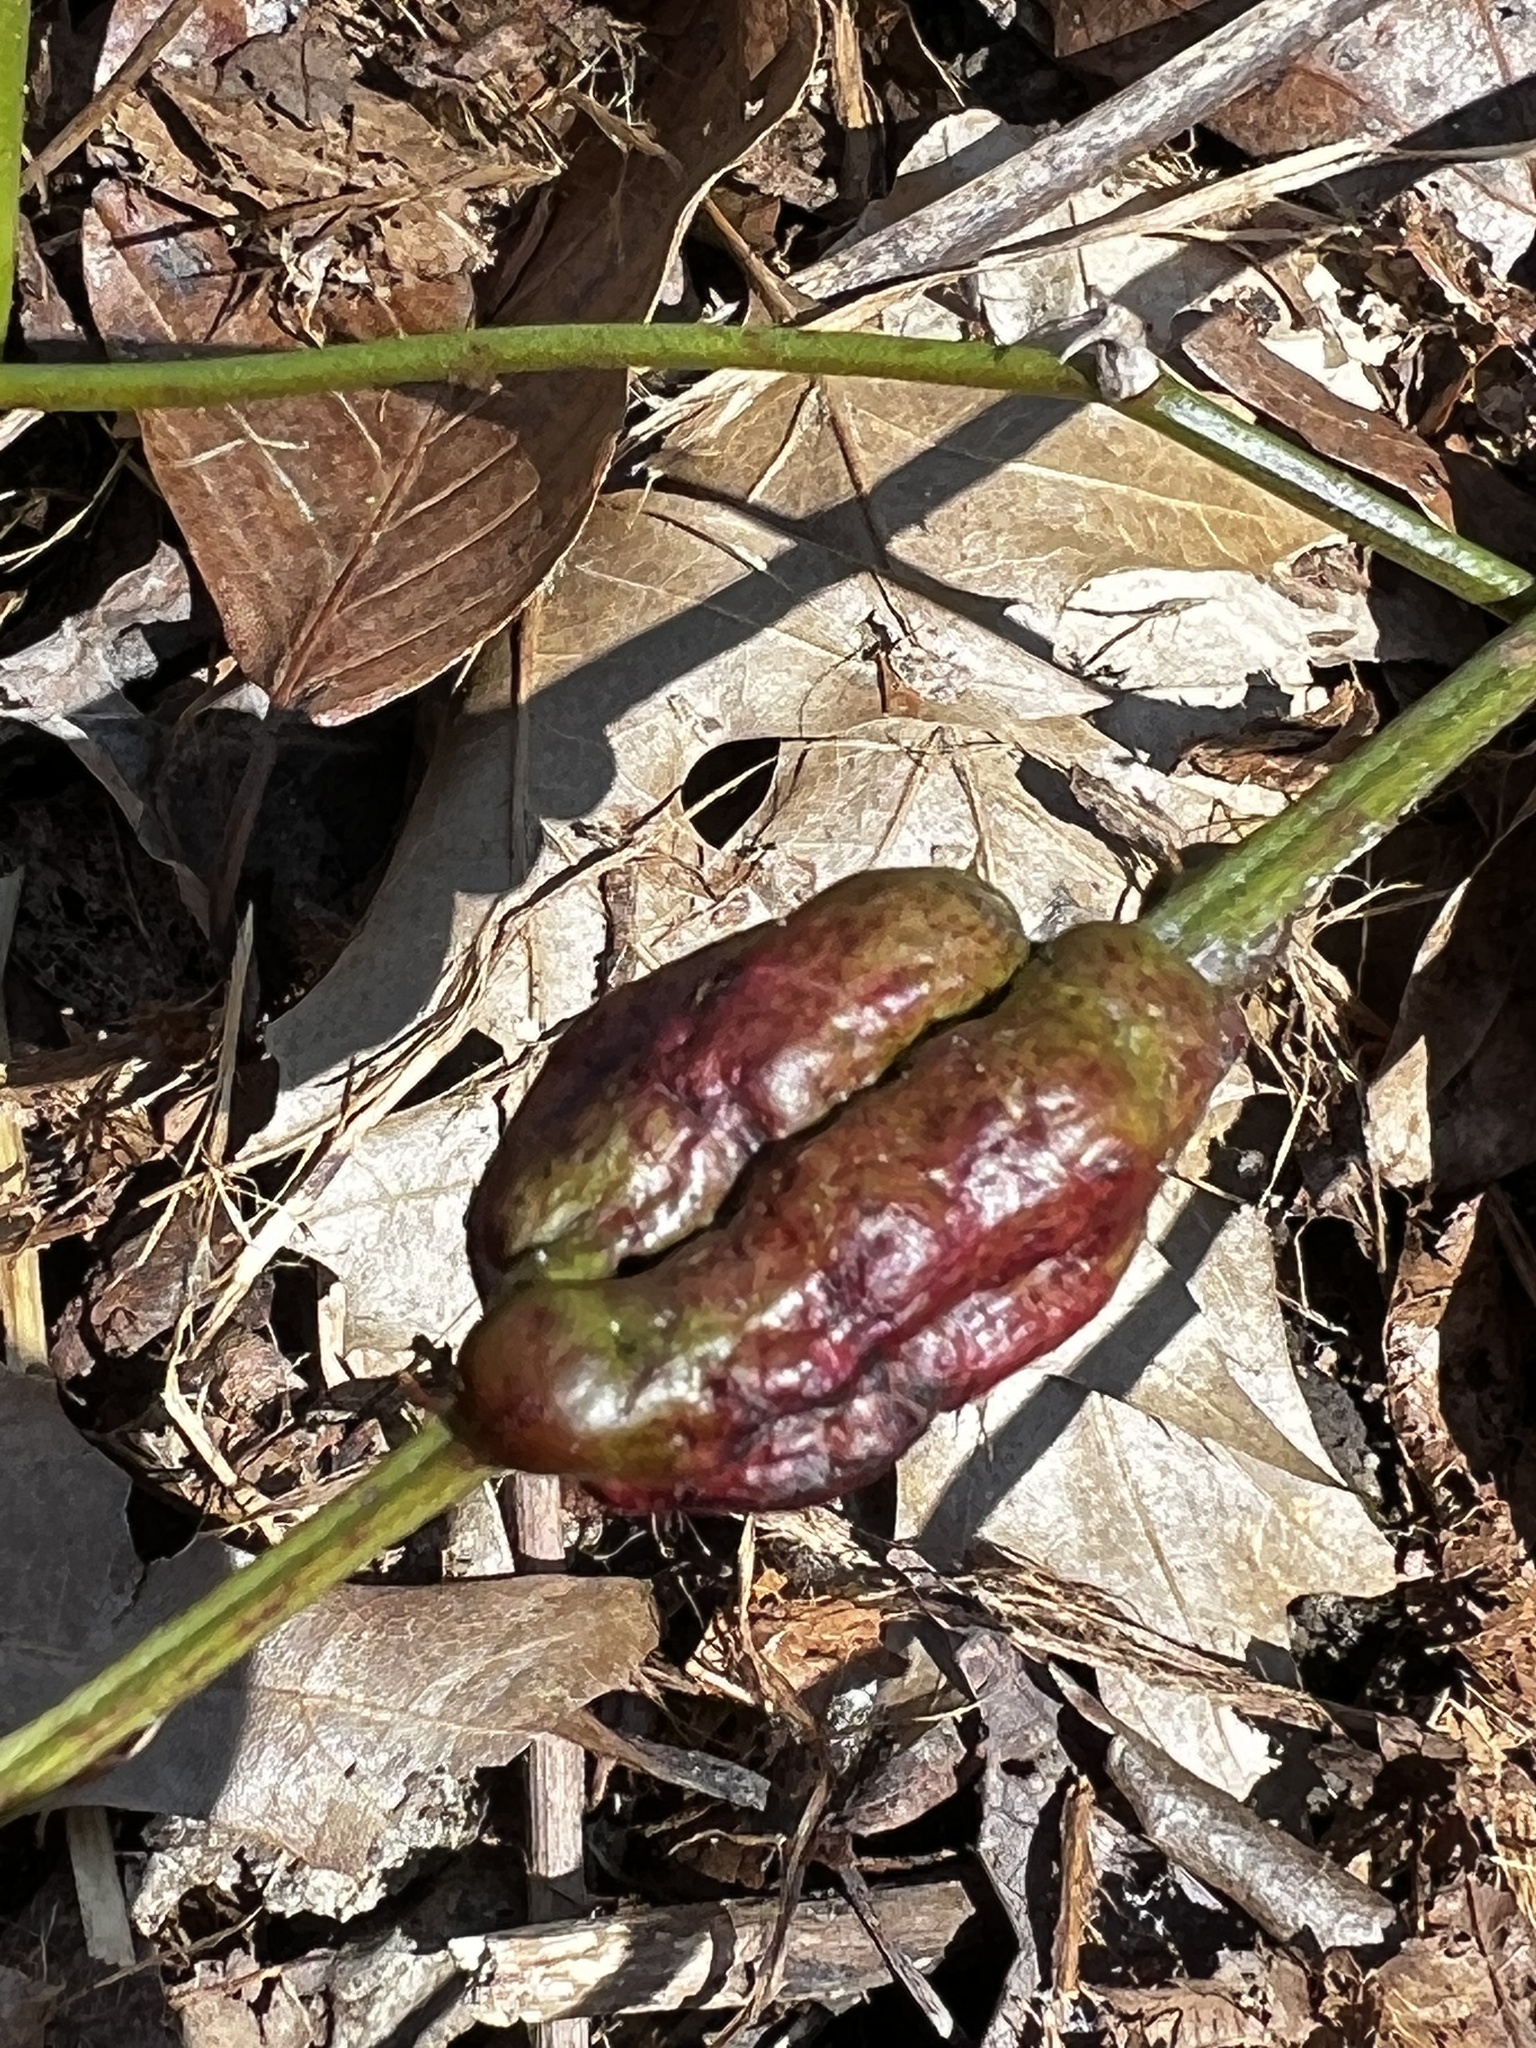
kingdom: Animalia
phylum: Arthropoda
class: Insecta
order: Hymenoptera
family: Cynipidae
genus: Diastrophus
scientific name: Diastrophus
